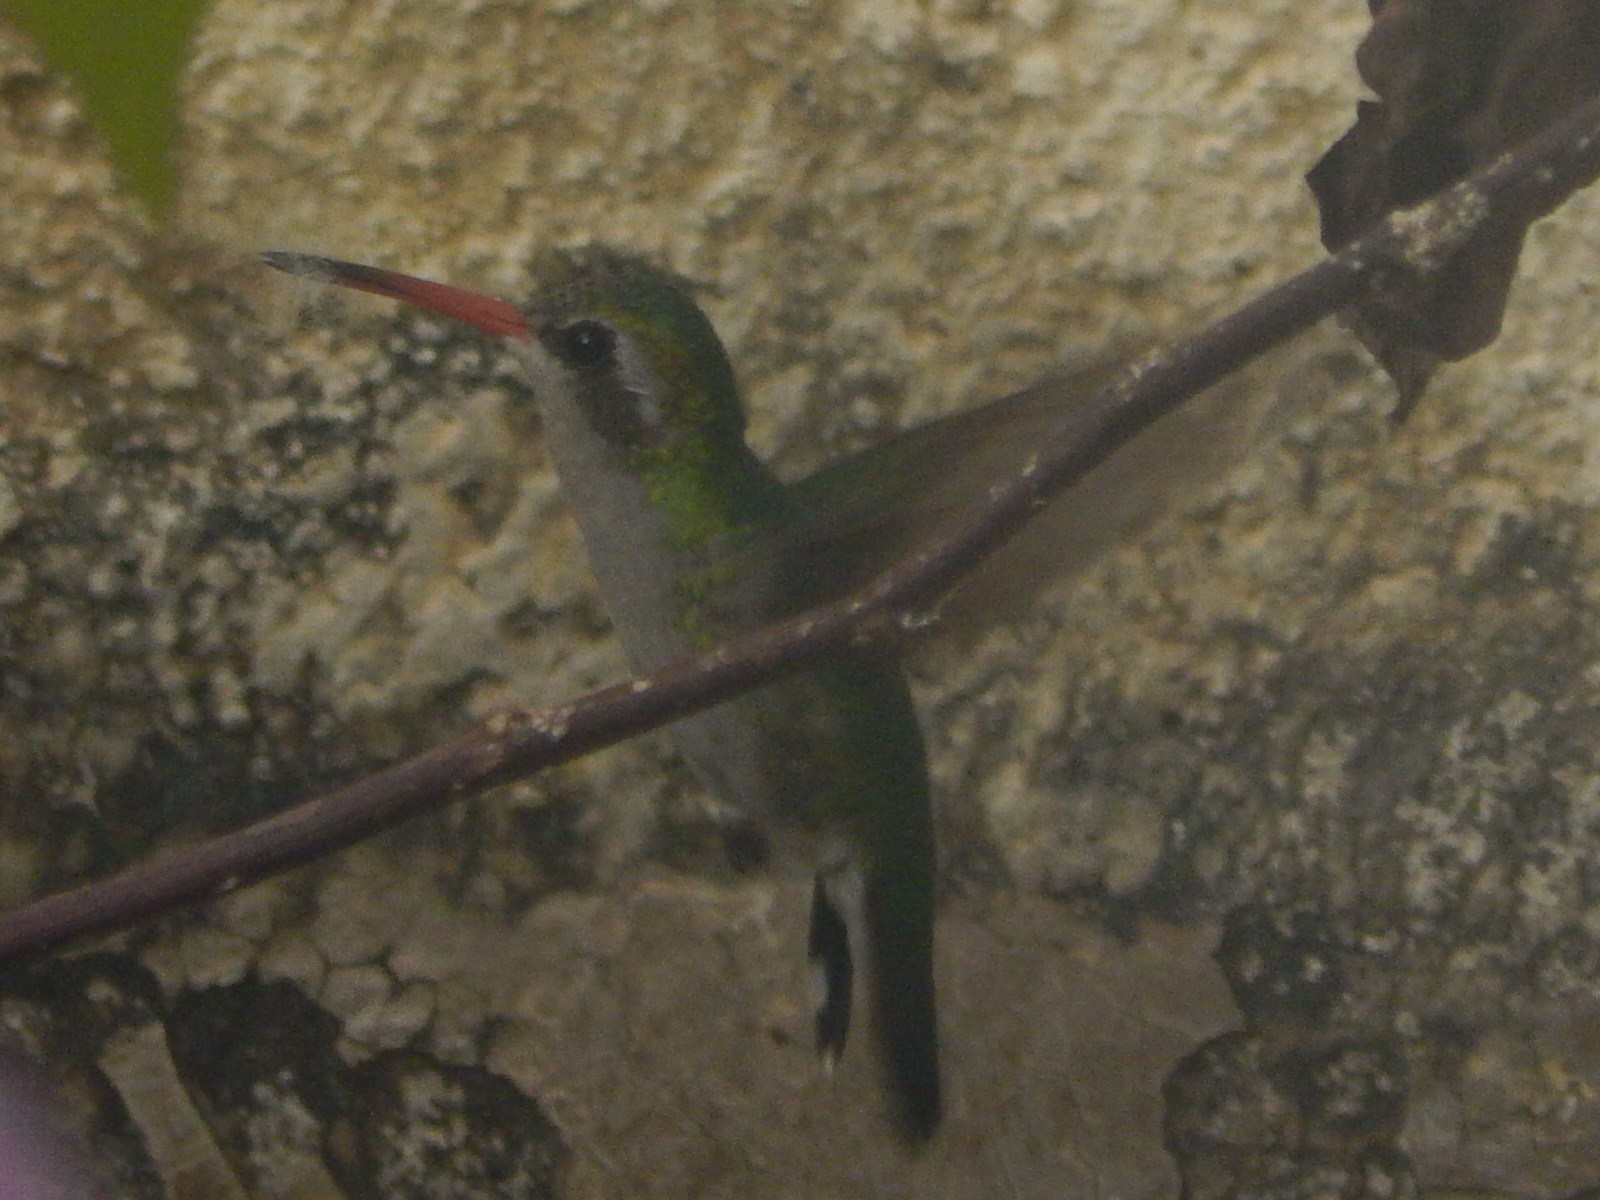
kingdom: Animalia
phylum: Chordata
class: Aves
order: Apodiformes
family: Trochilidae
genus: Chlorostilbon
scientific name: Chlorostilbon lucidus
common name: Glittering-bellied emerald
